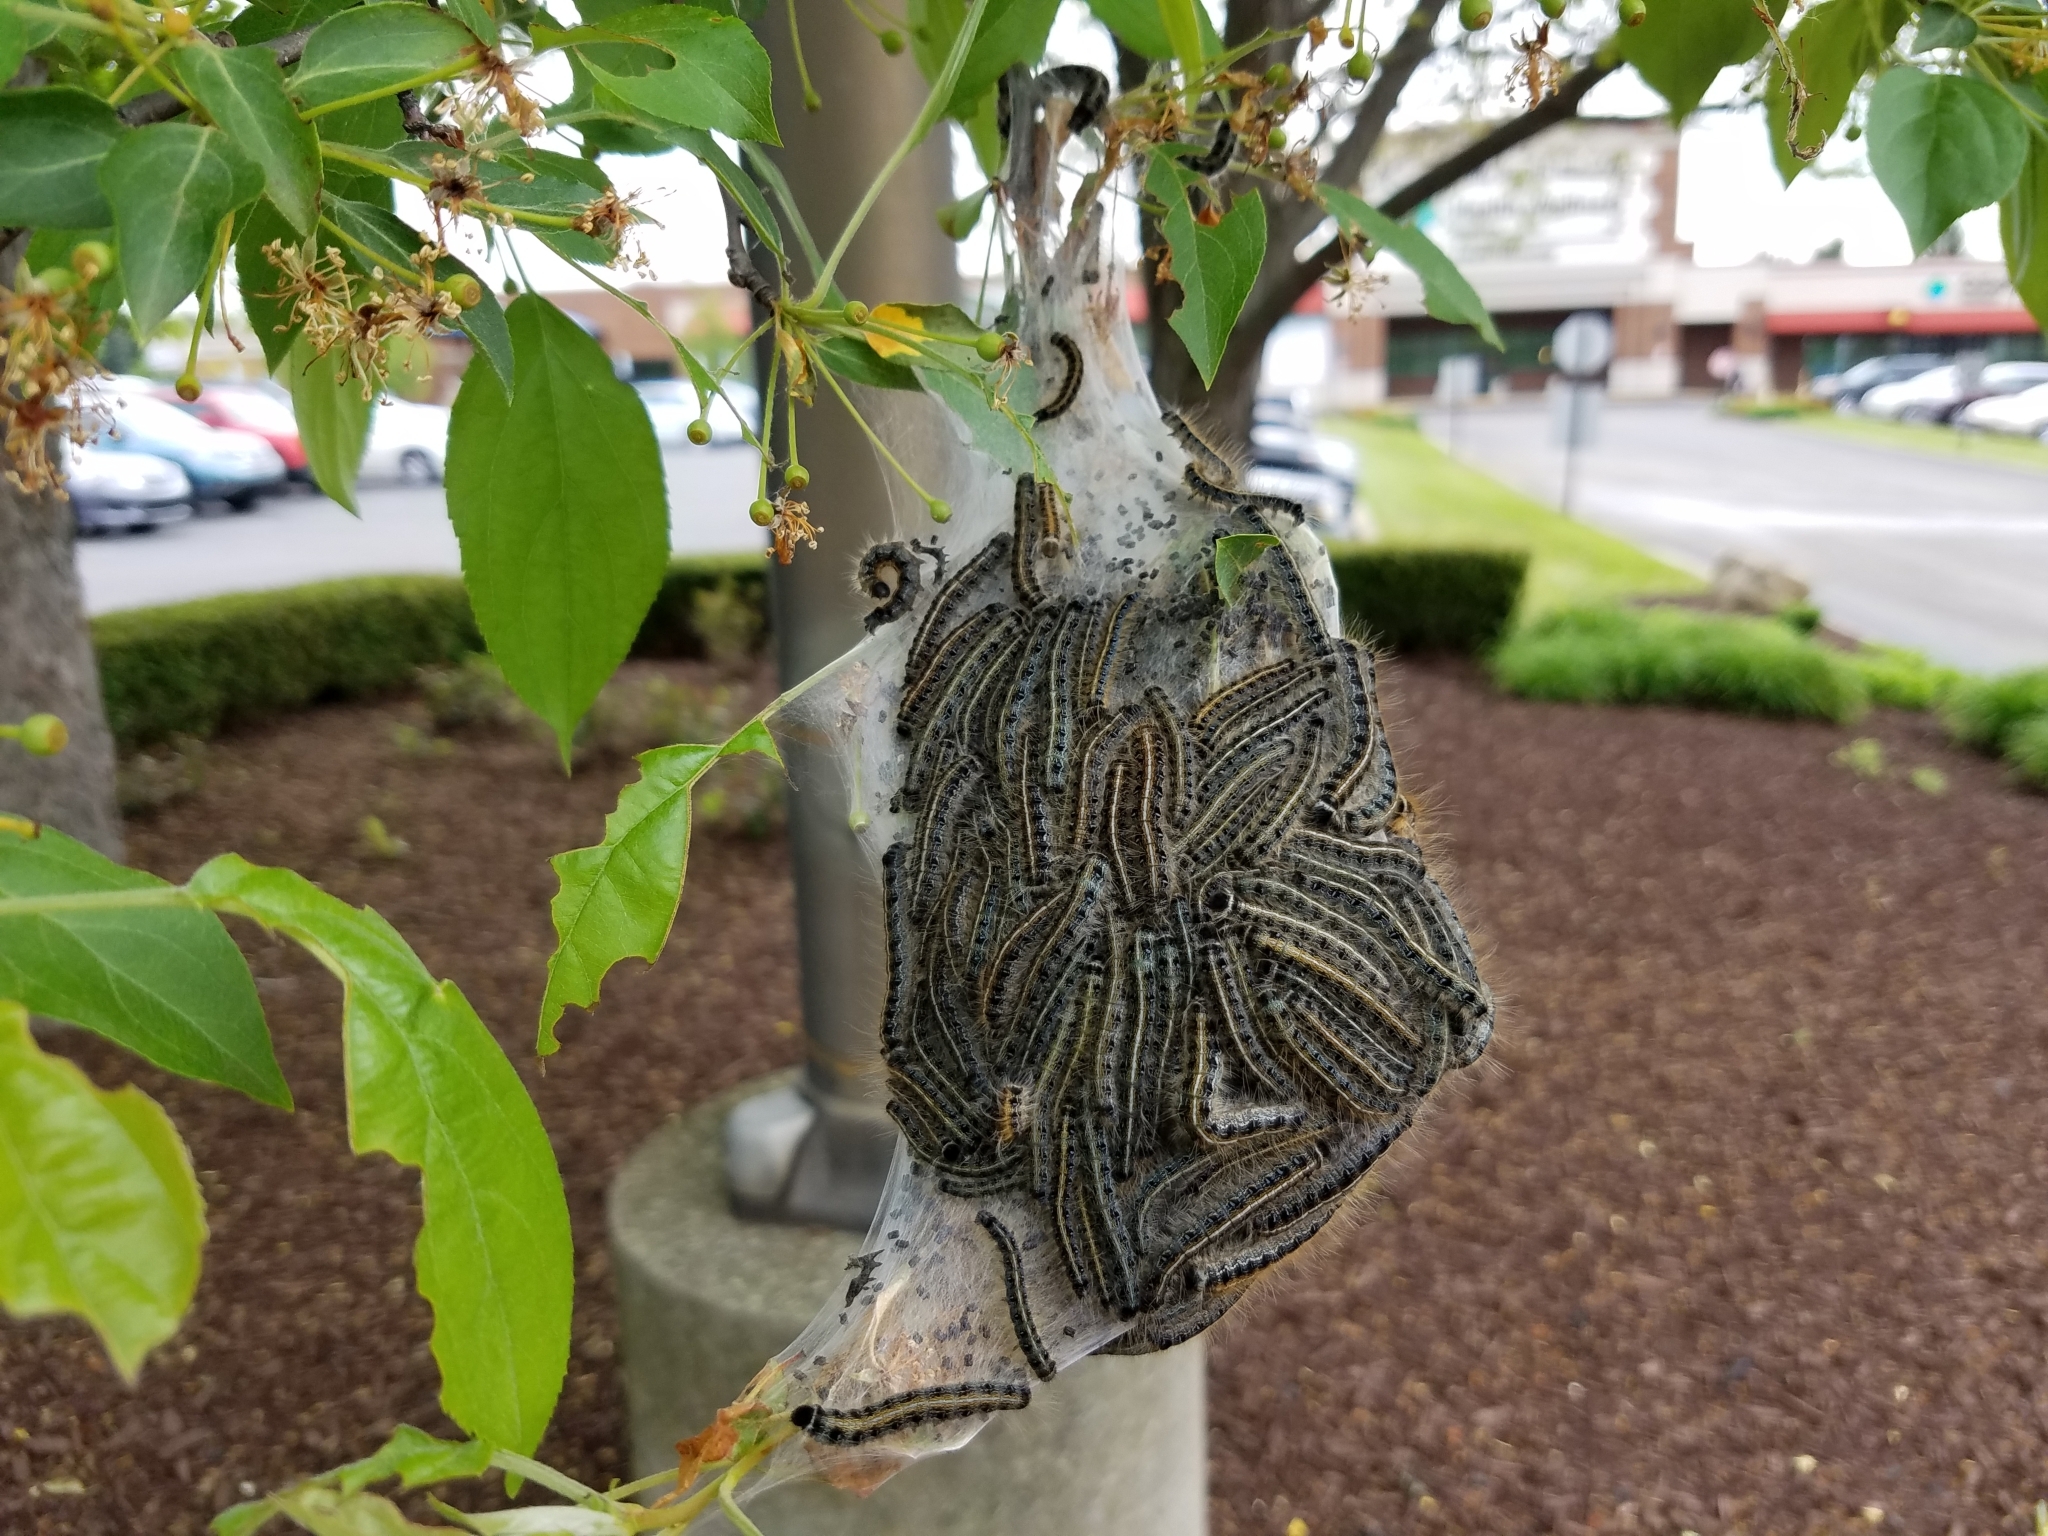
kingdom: Animalia
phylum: Arthropoda
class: Insecta
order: Lepidoptera
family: Lasiocampidae
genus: Malacosoma
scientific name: Malacosoma americana
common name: Eastern tent caterpillar moth
